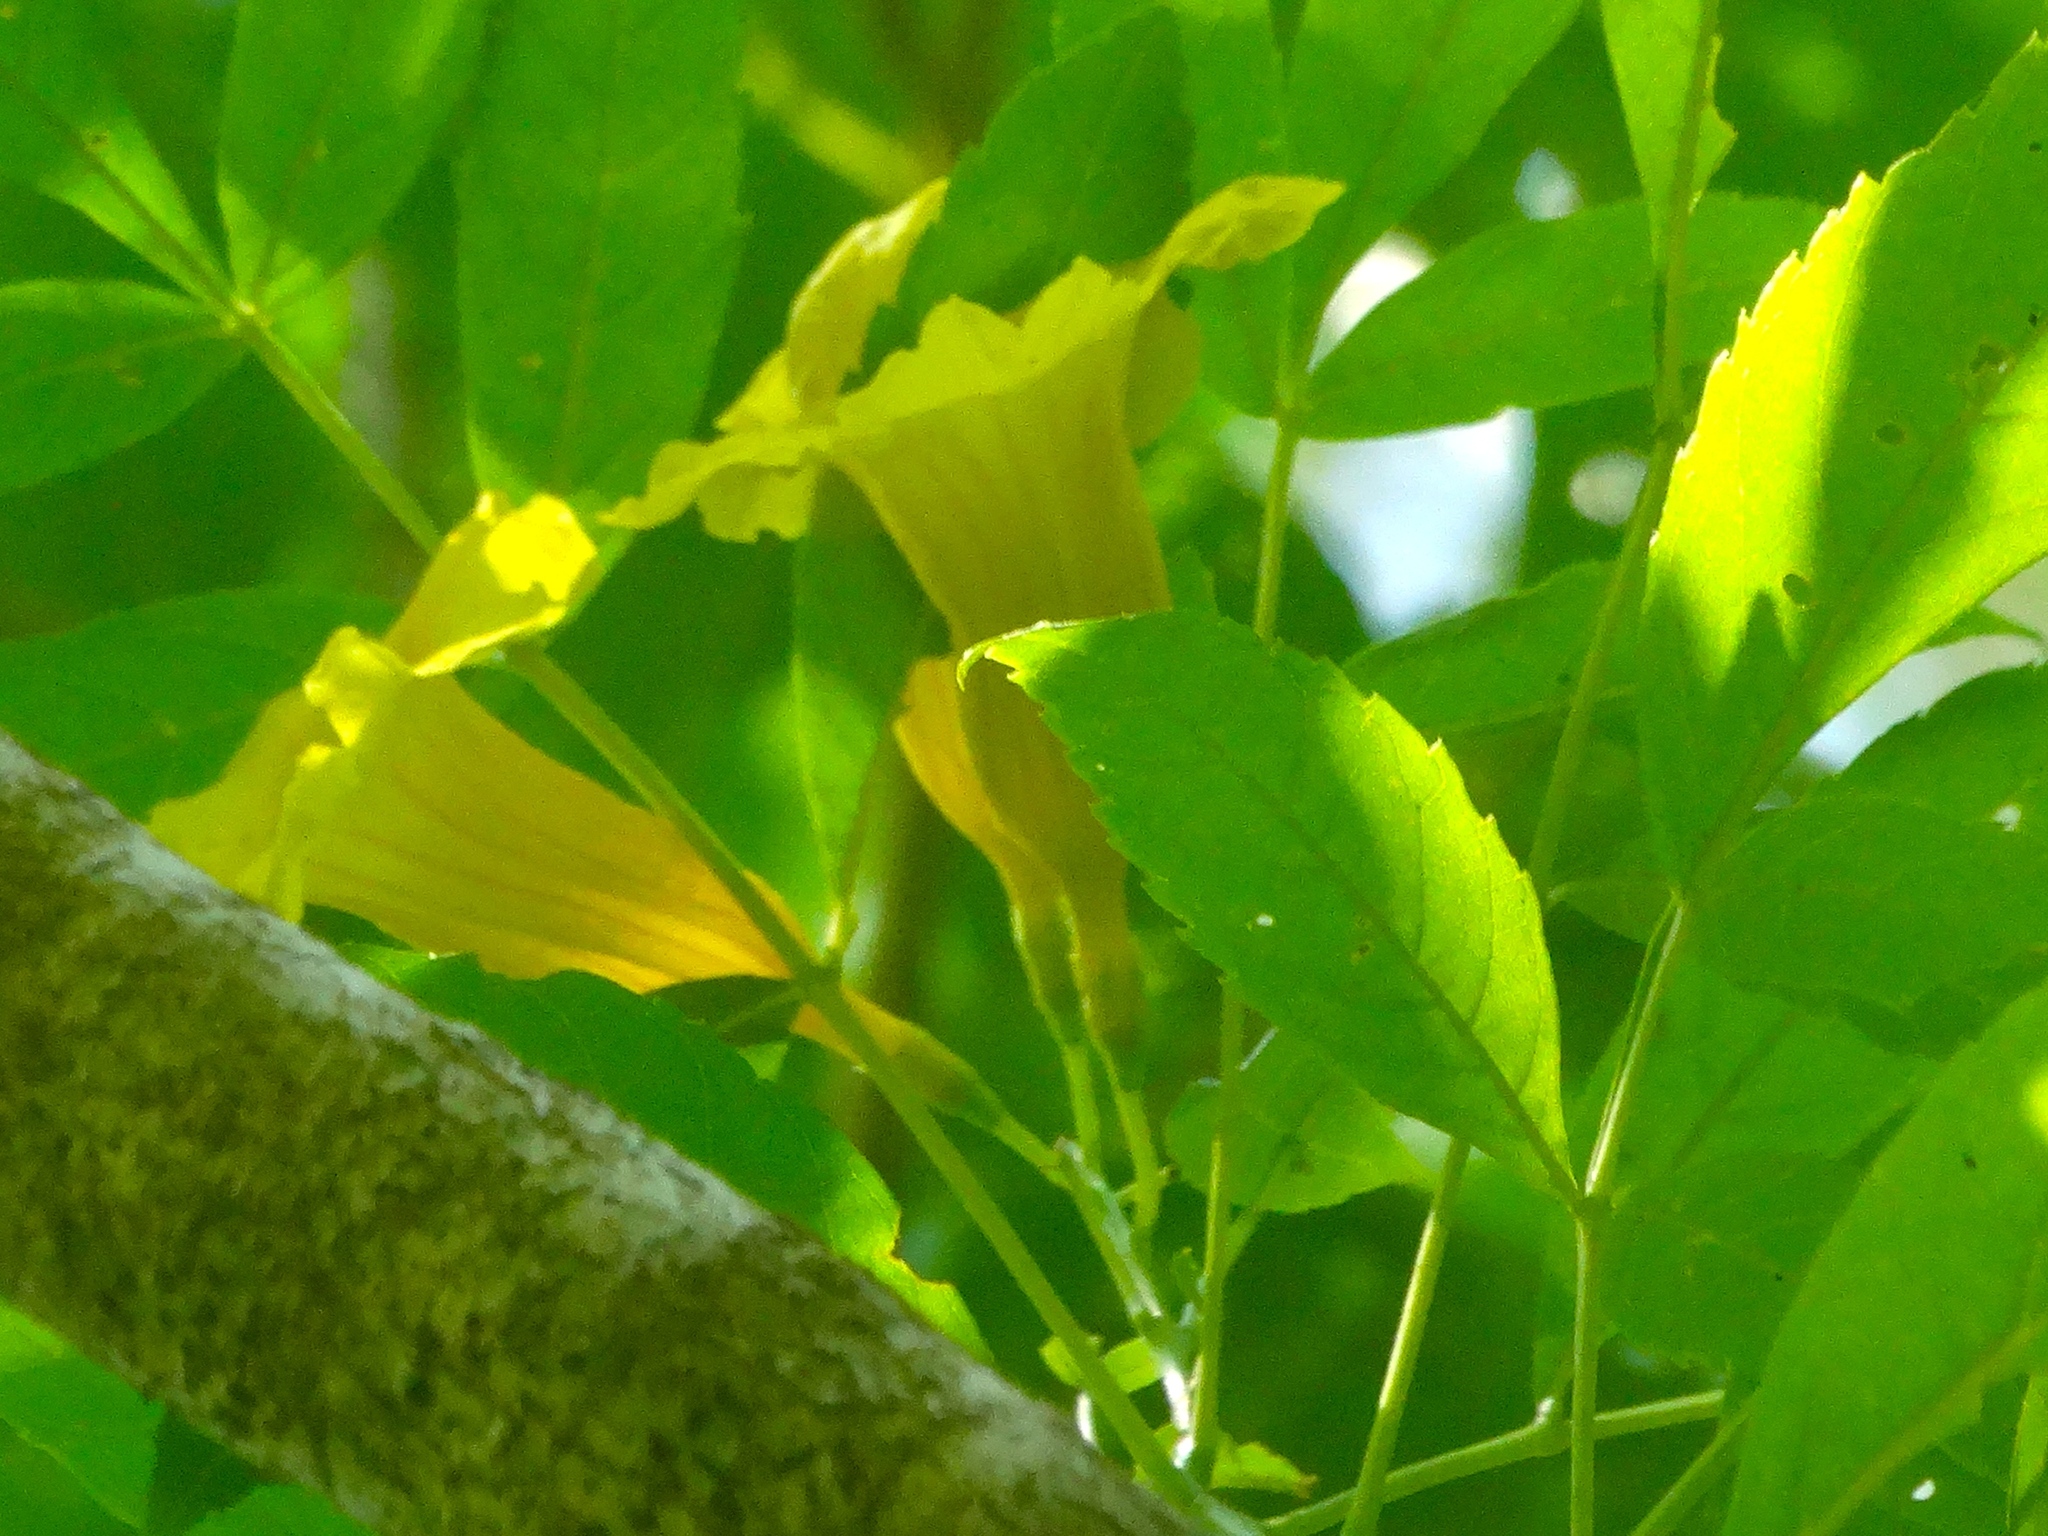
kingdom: Plantae
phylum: Tracheophyta
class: Magnoliopsida
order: Lamiales
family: Bignoniaceae
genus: Tecoma
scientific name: Tecoma stans
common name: Yellow trumpetbush
